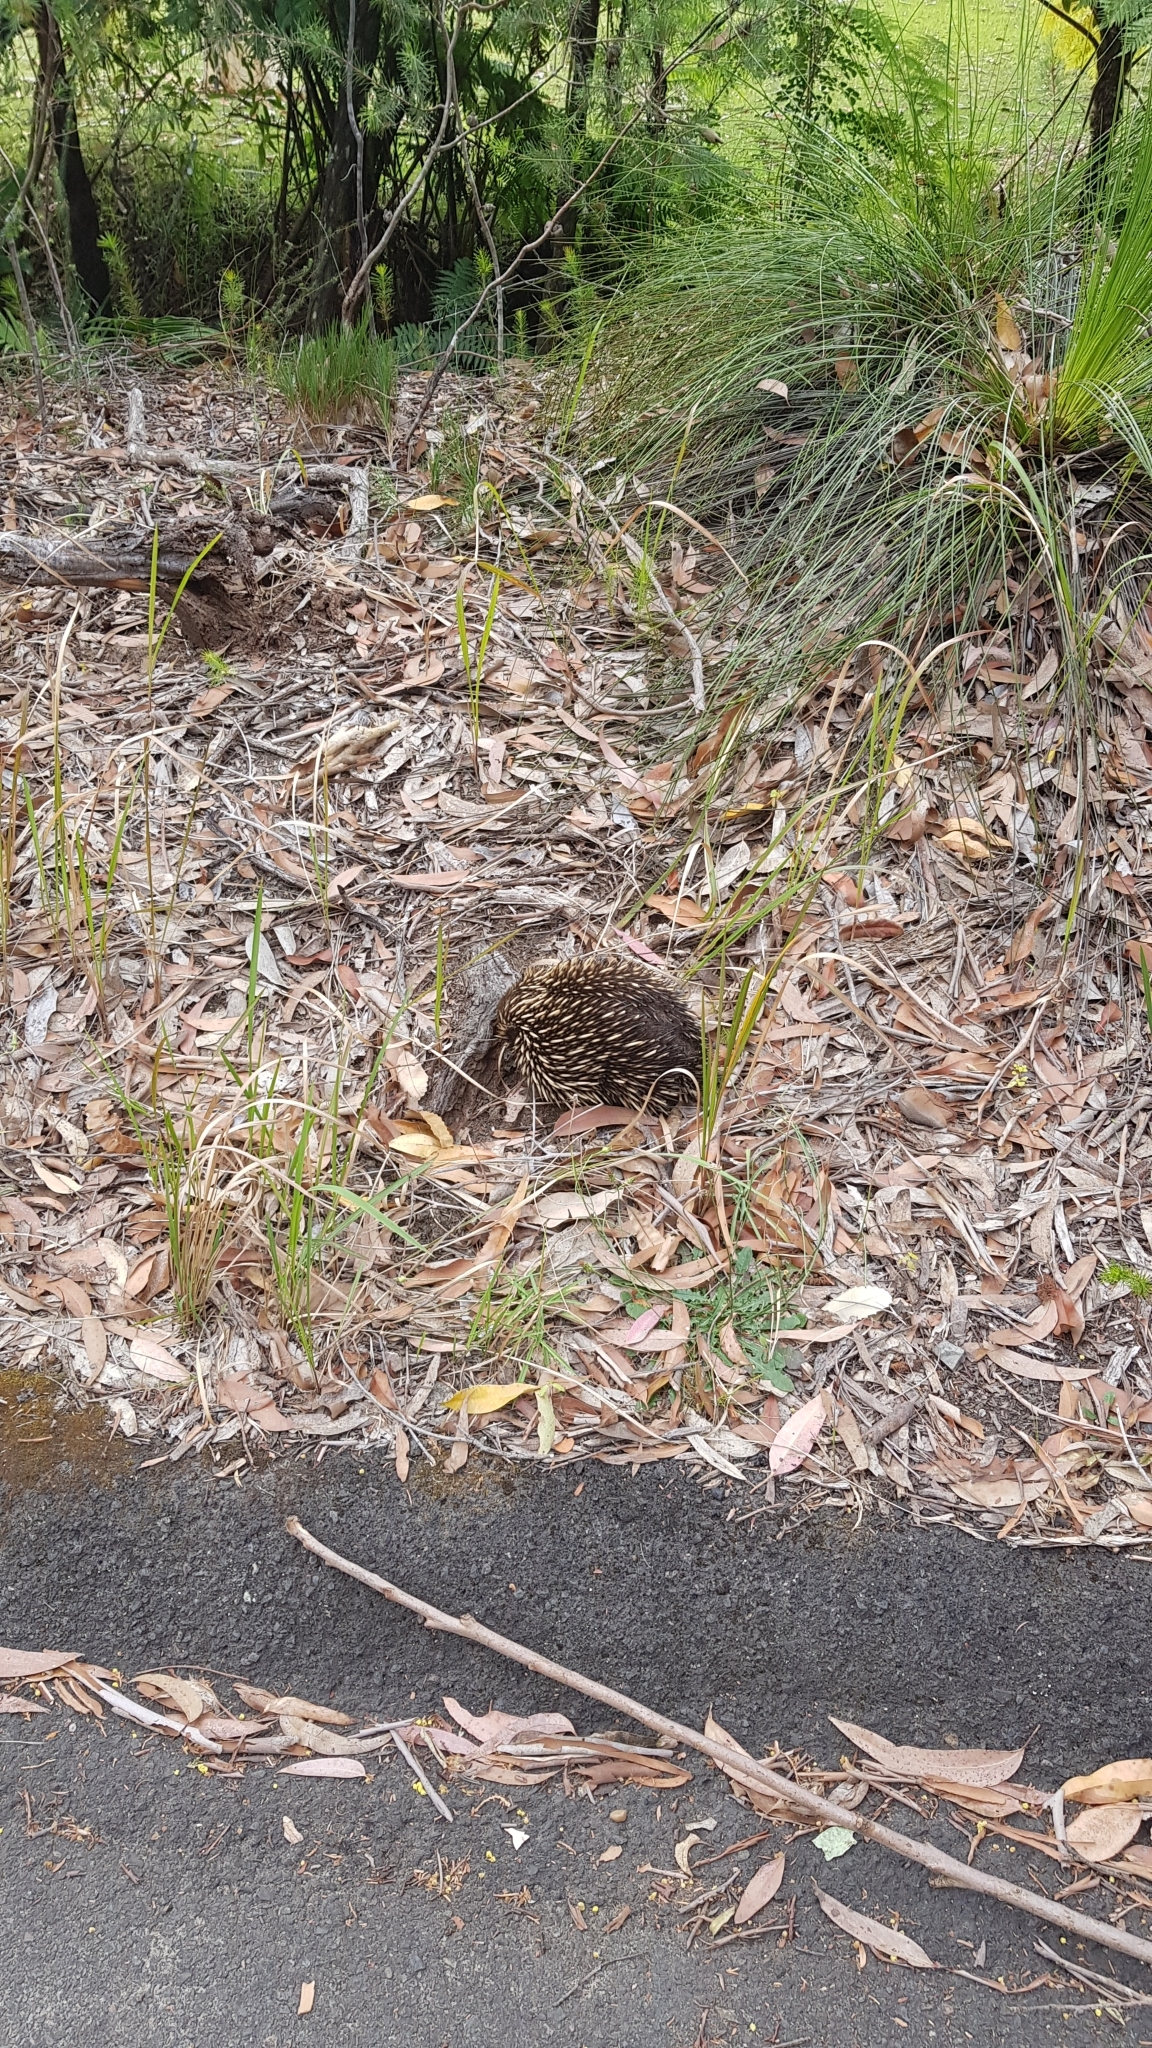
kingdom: Animalia
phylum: Chordata
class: Mammalia
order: Monotremata
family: Tachyglossidae
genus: Tachyglossus
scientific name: Tachyglossus aculeatus
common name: Short-beaked echidna
